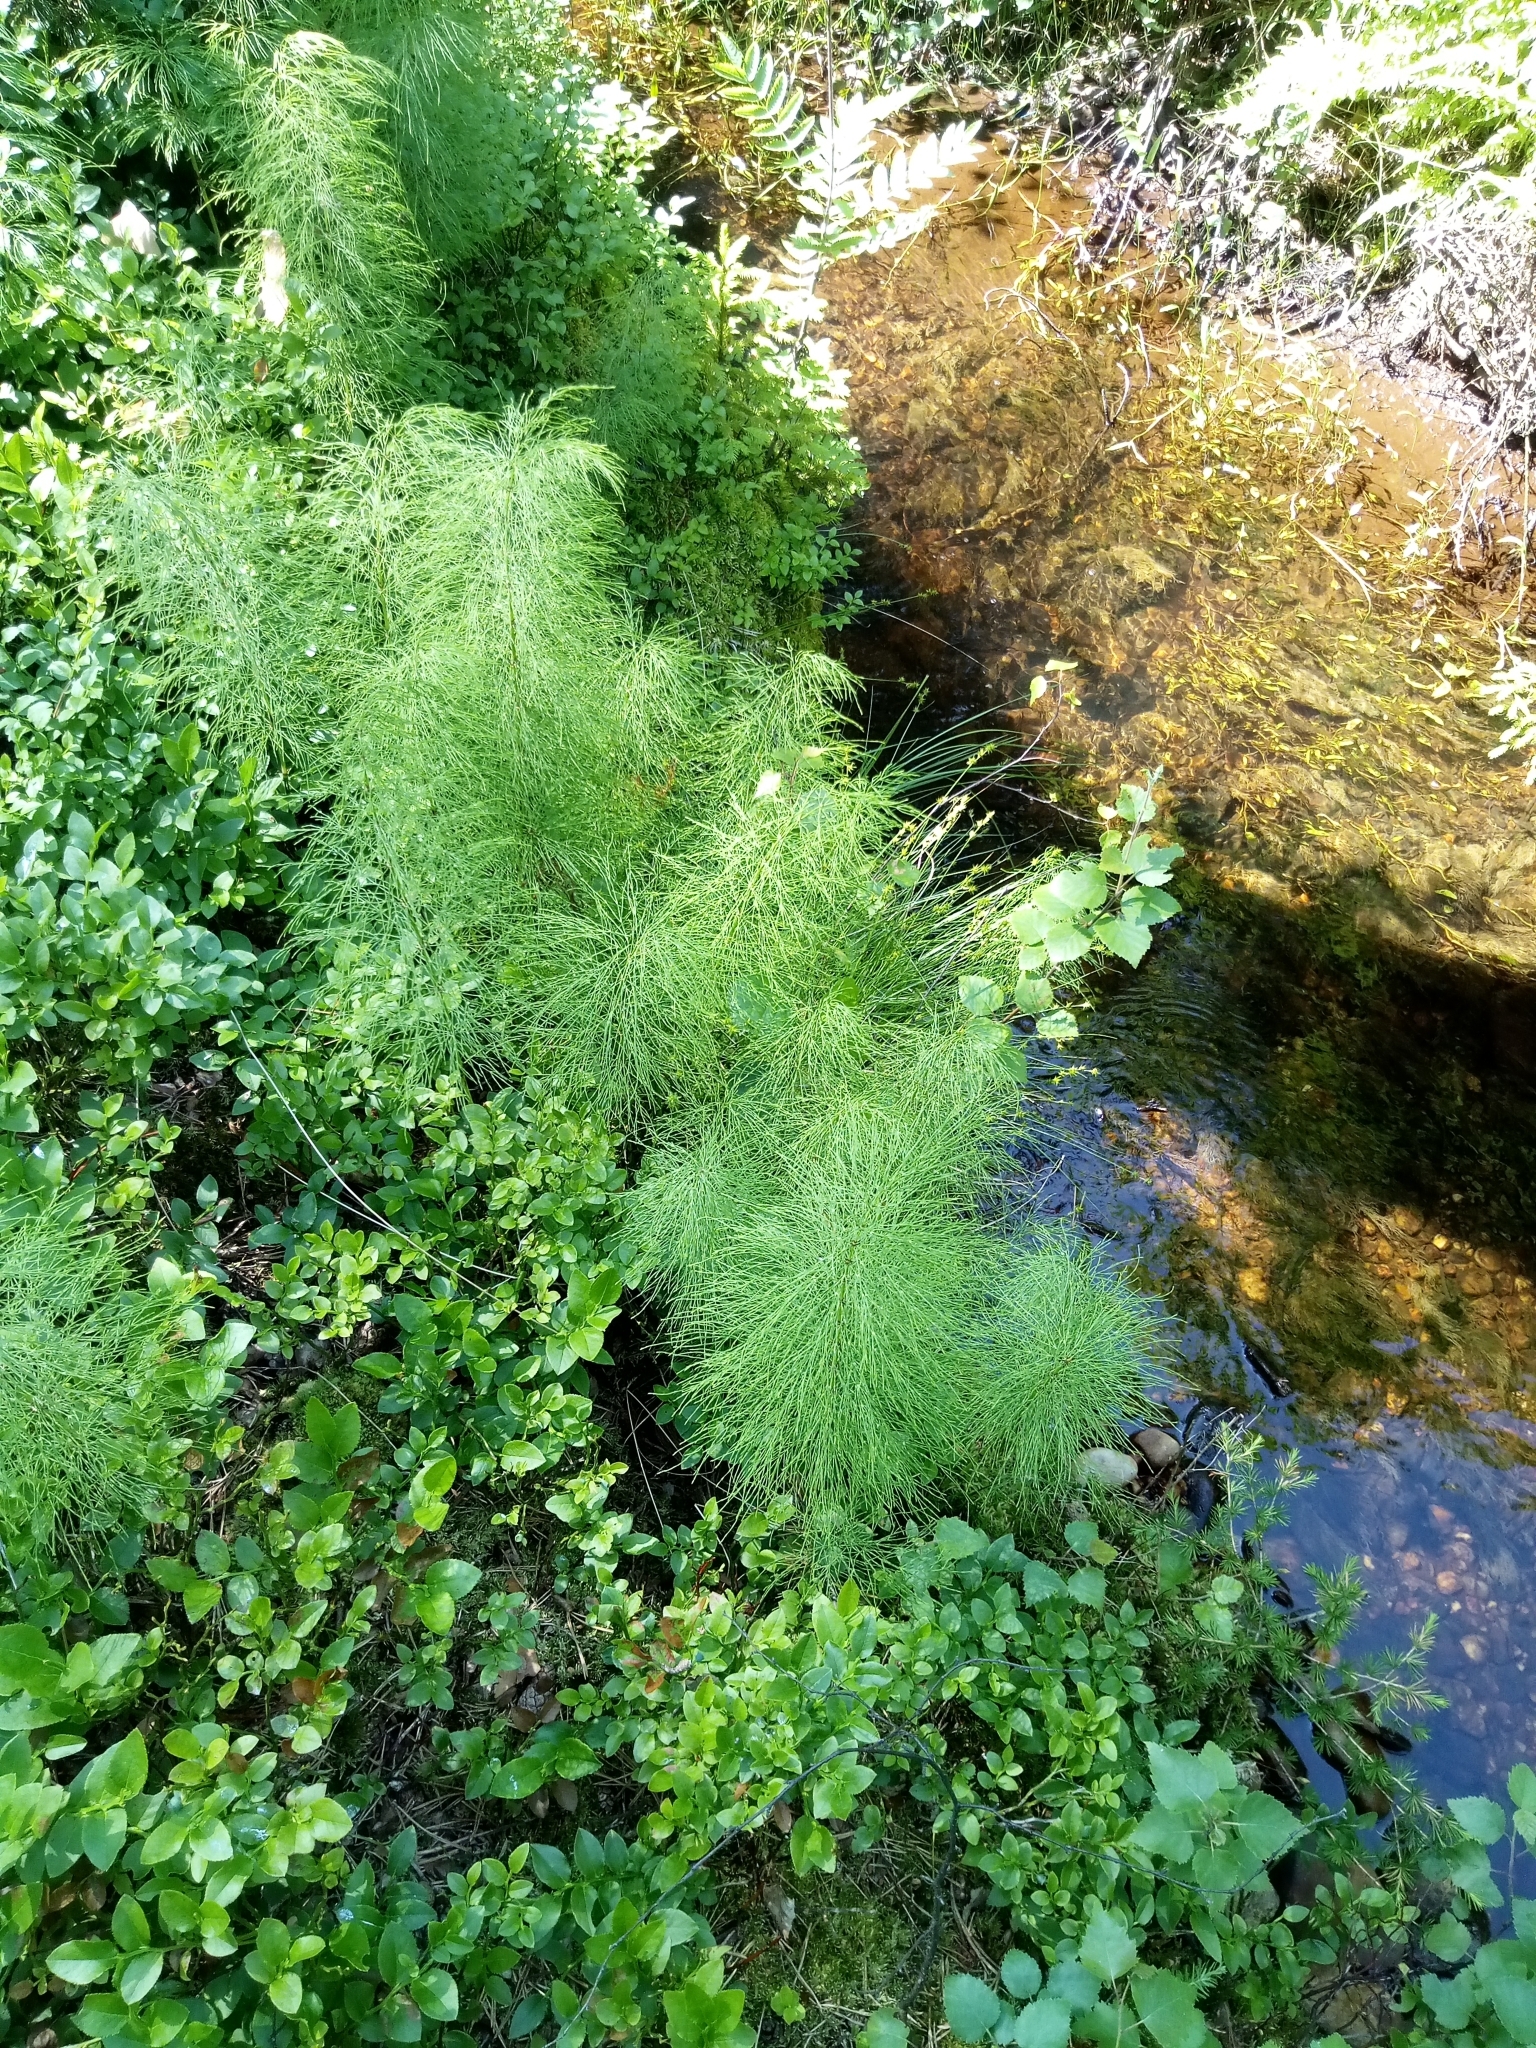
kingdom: Plantae
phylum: Tracheophyta
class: Polypodiopsida
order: Equisetales
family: Equisetaceae
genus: Equisetum
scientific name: Equisetum sylvaticum
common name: Wood horsetail
